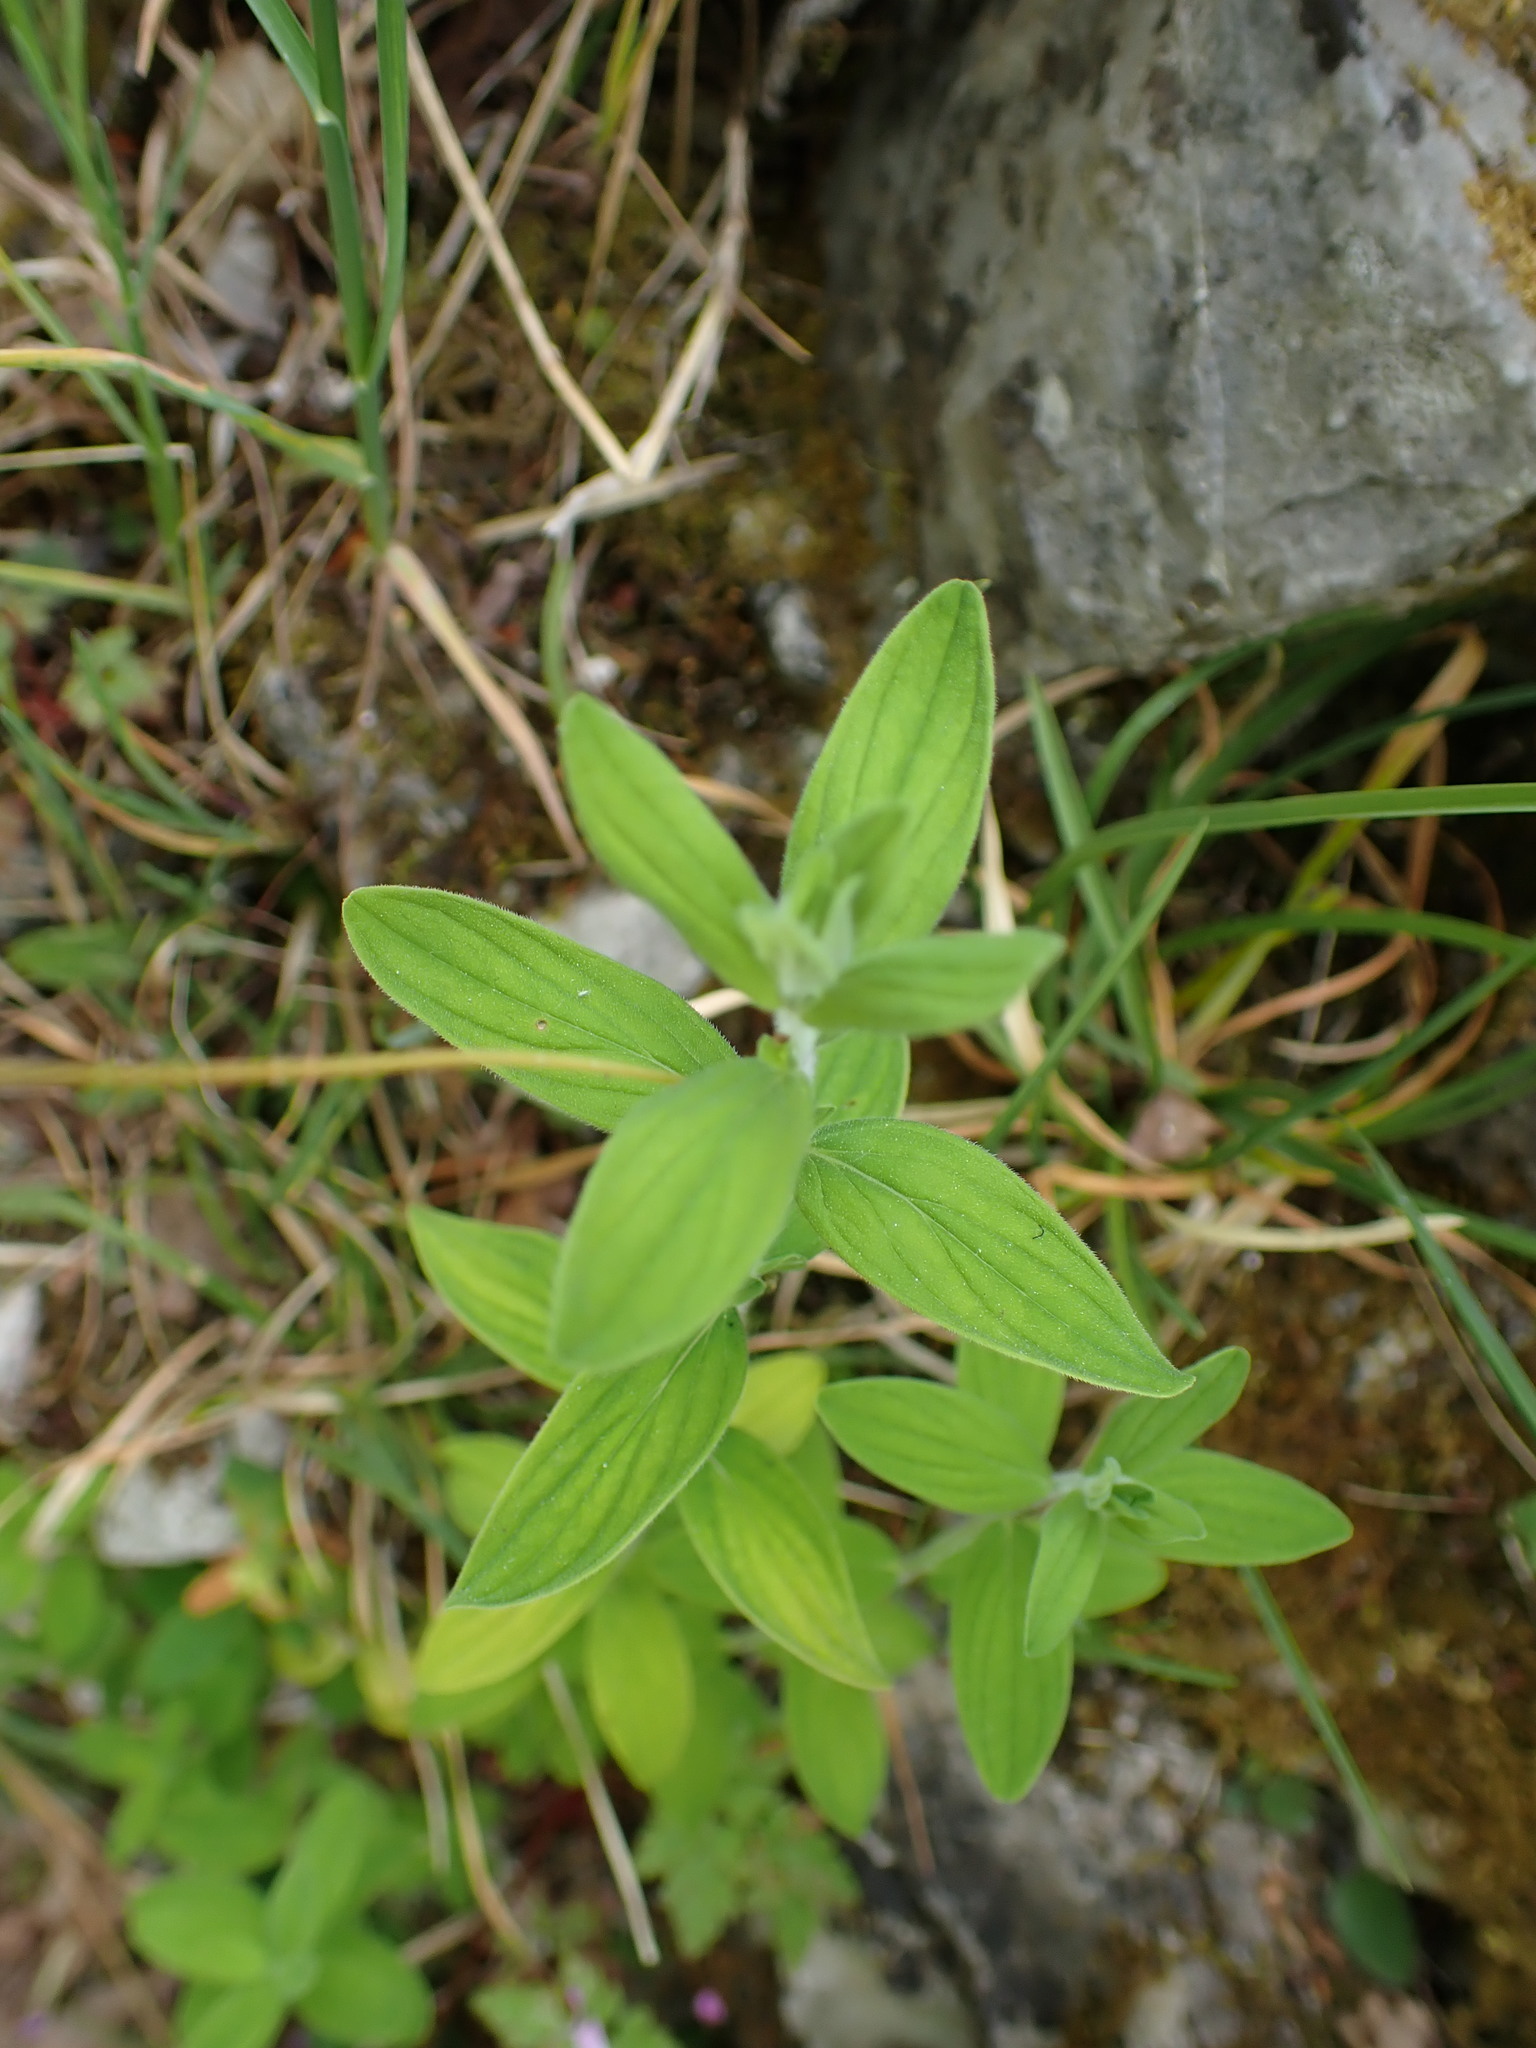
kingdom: Plantae
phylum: Tracheophyta
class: Magnoliopsida
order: Malpighiales
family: Hypericaceae
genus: Hypericum
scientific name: Hypericum hirsutum
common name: Hairy st. john's-wort
